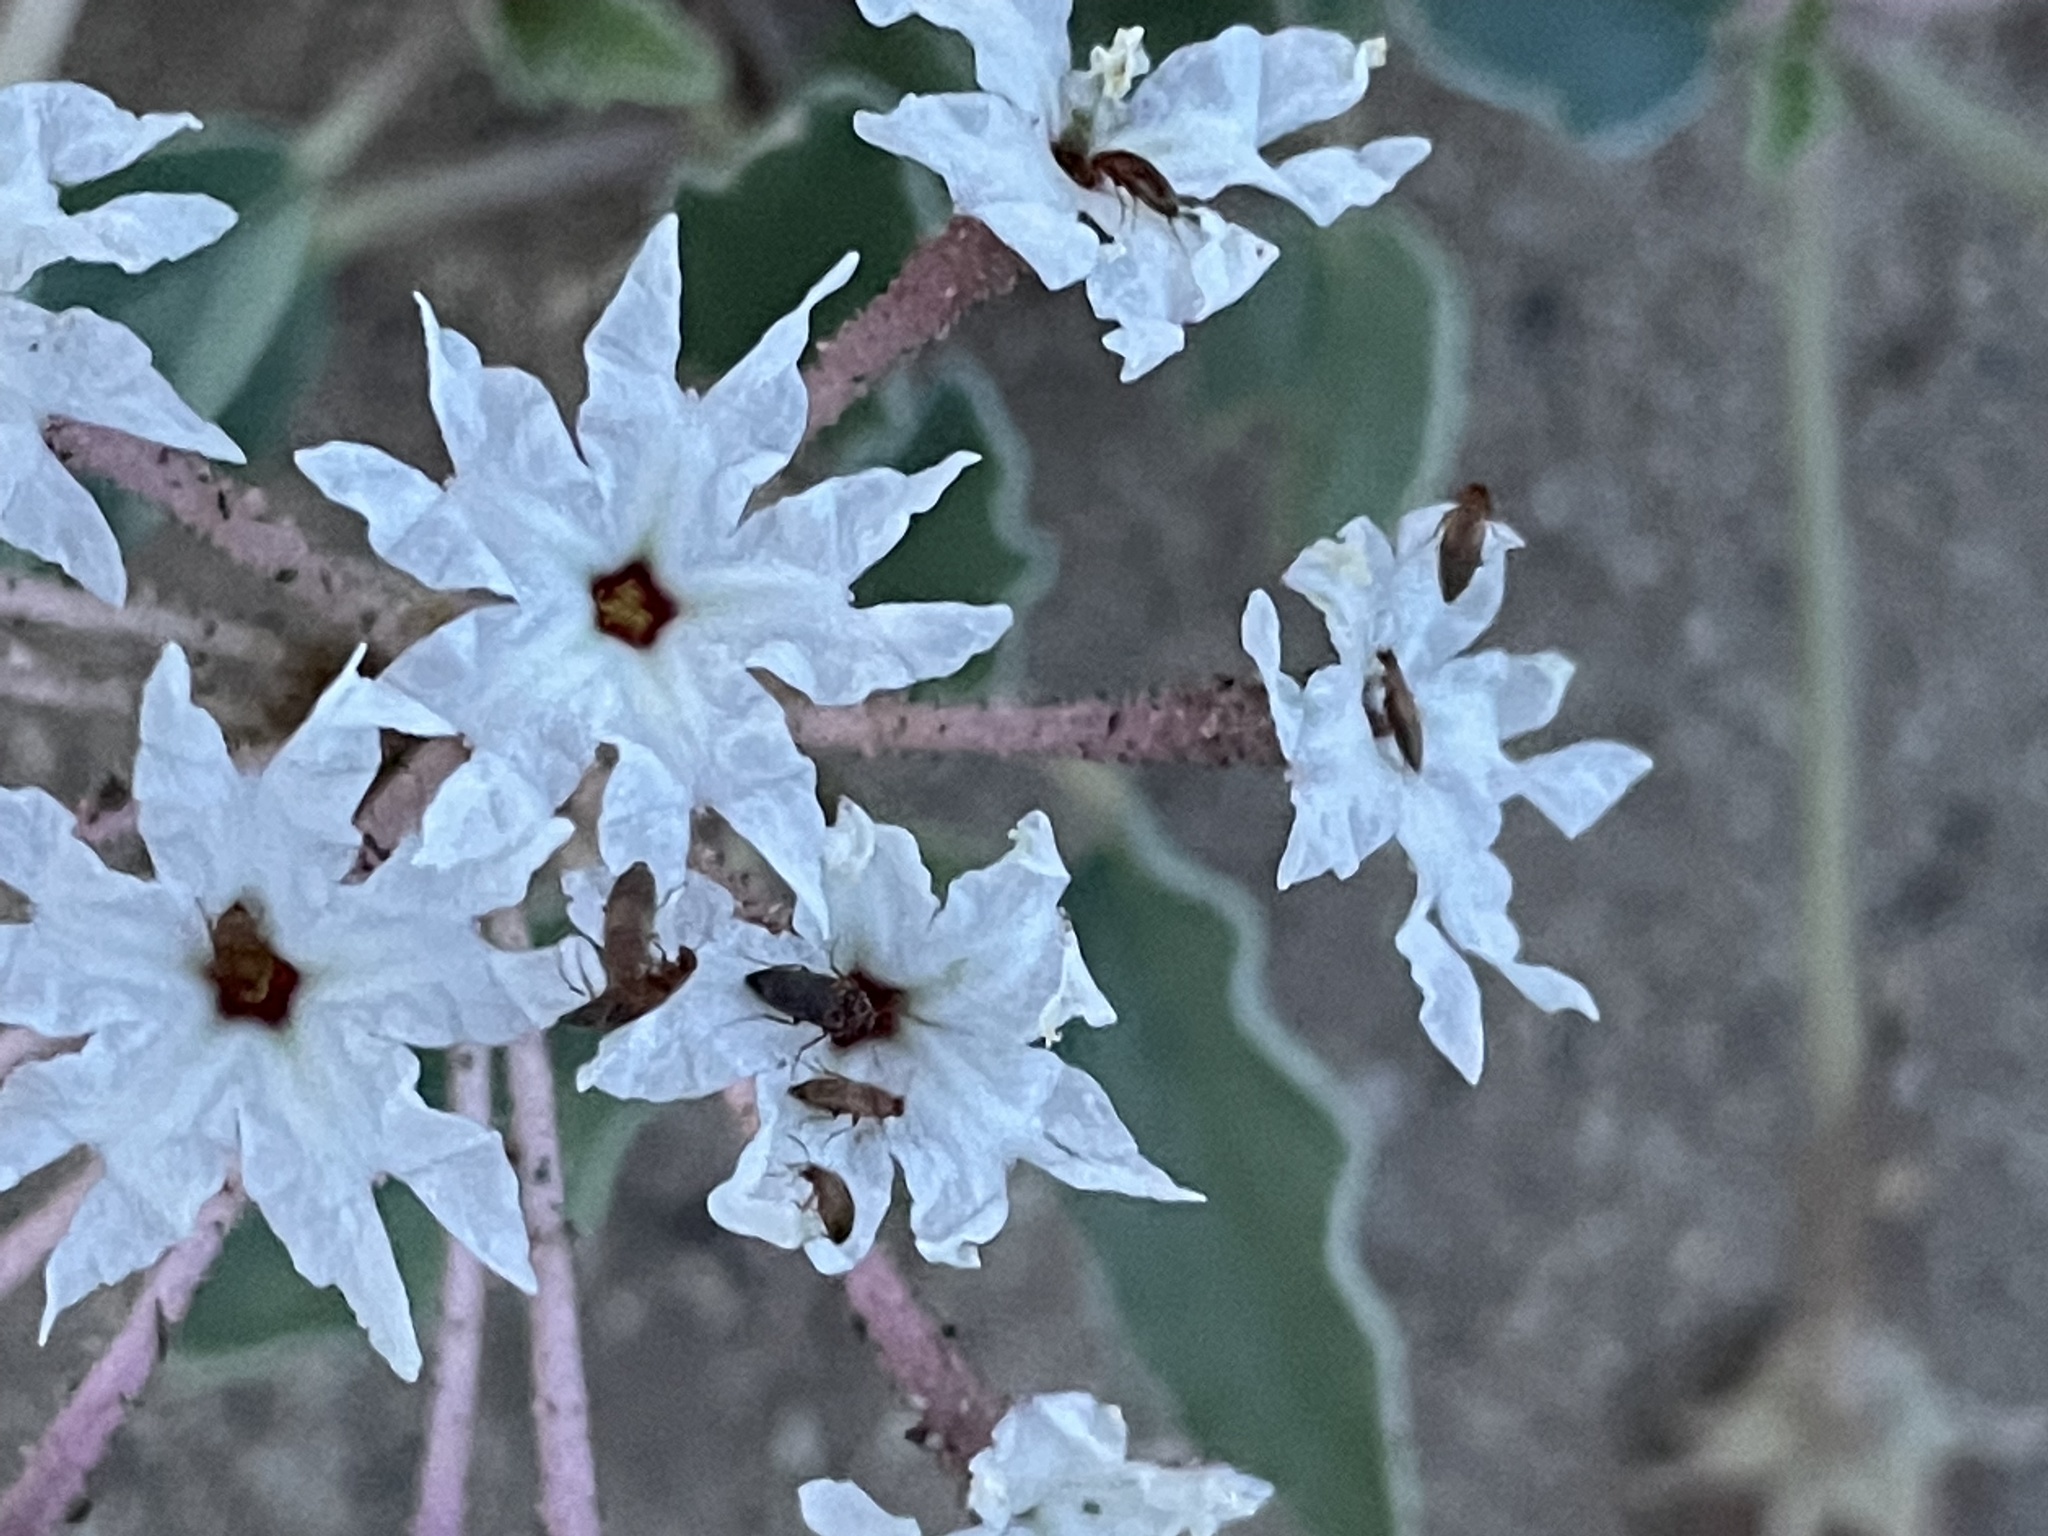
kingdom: Plantae
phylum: Tracheophyta
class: Magnoliopsida
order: Caryophyllales
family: Nyctaginaceae
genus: Tripterocalyx
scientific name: Tripterocalyx carneus
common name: Winged sandpuffs
